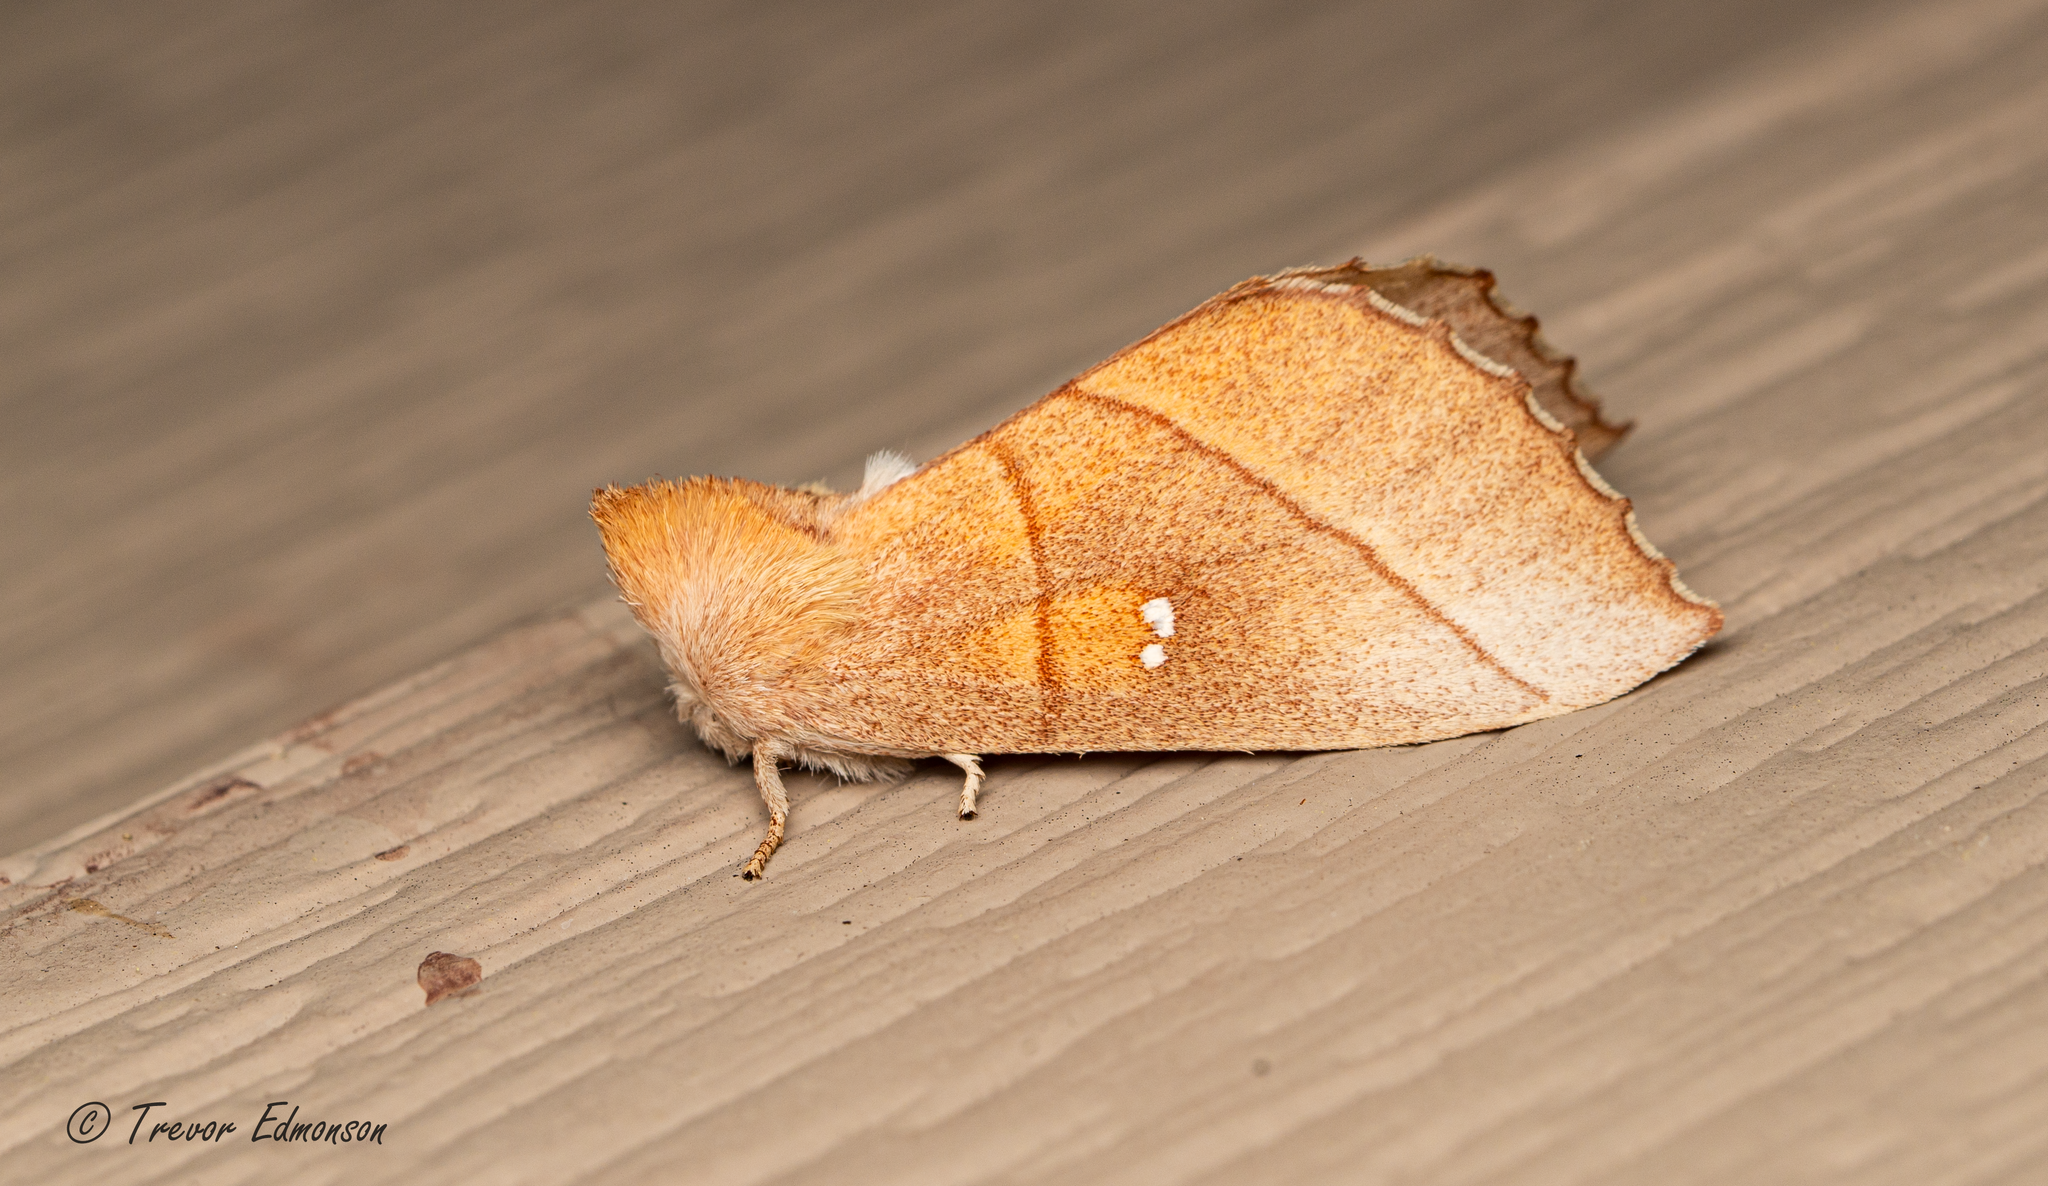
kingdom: Animalia
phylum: Arthropoda
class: Insecta
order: Lepidoptera
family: Notodontidae
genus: Nadata
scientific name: Nadata gibbosa
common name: White-dotted prominent
